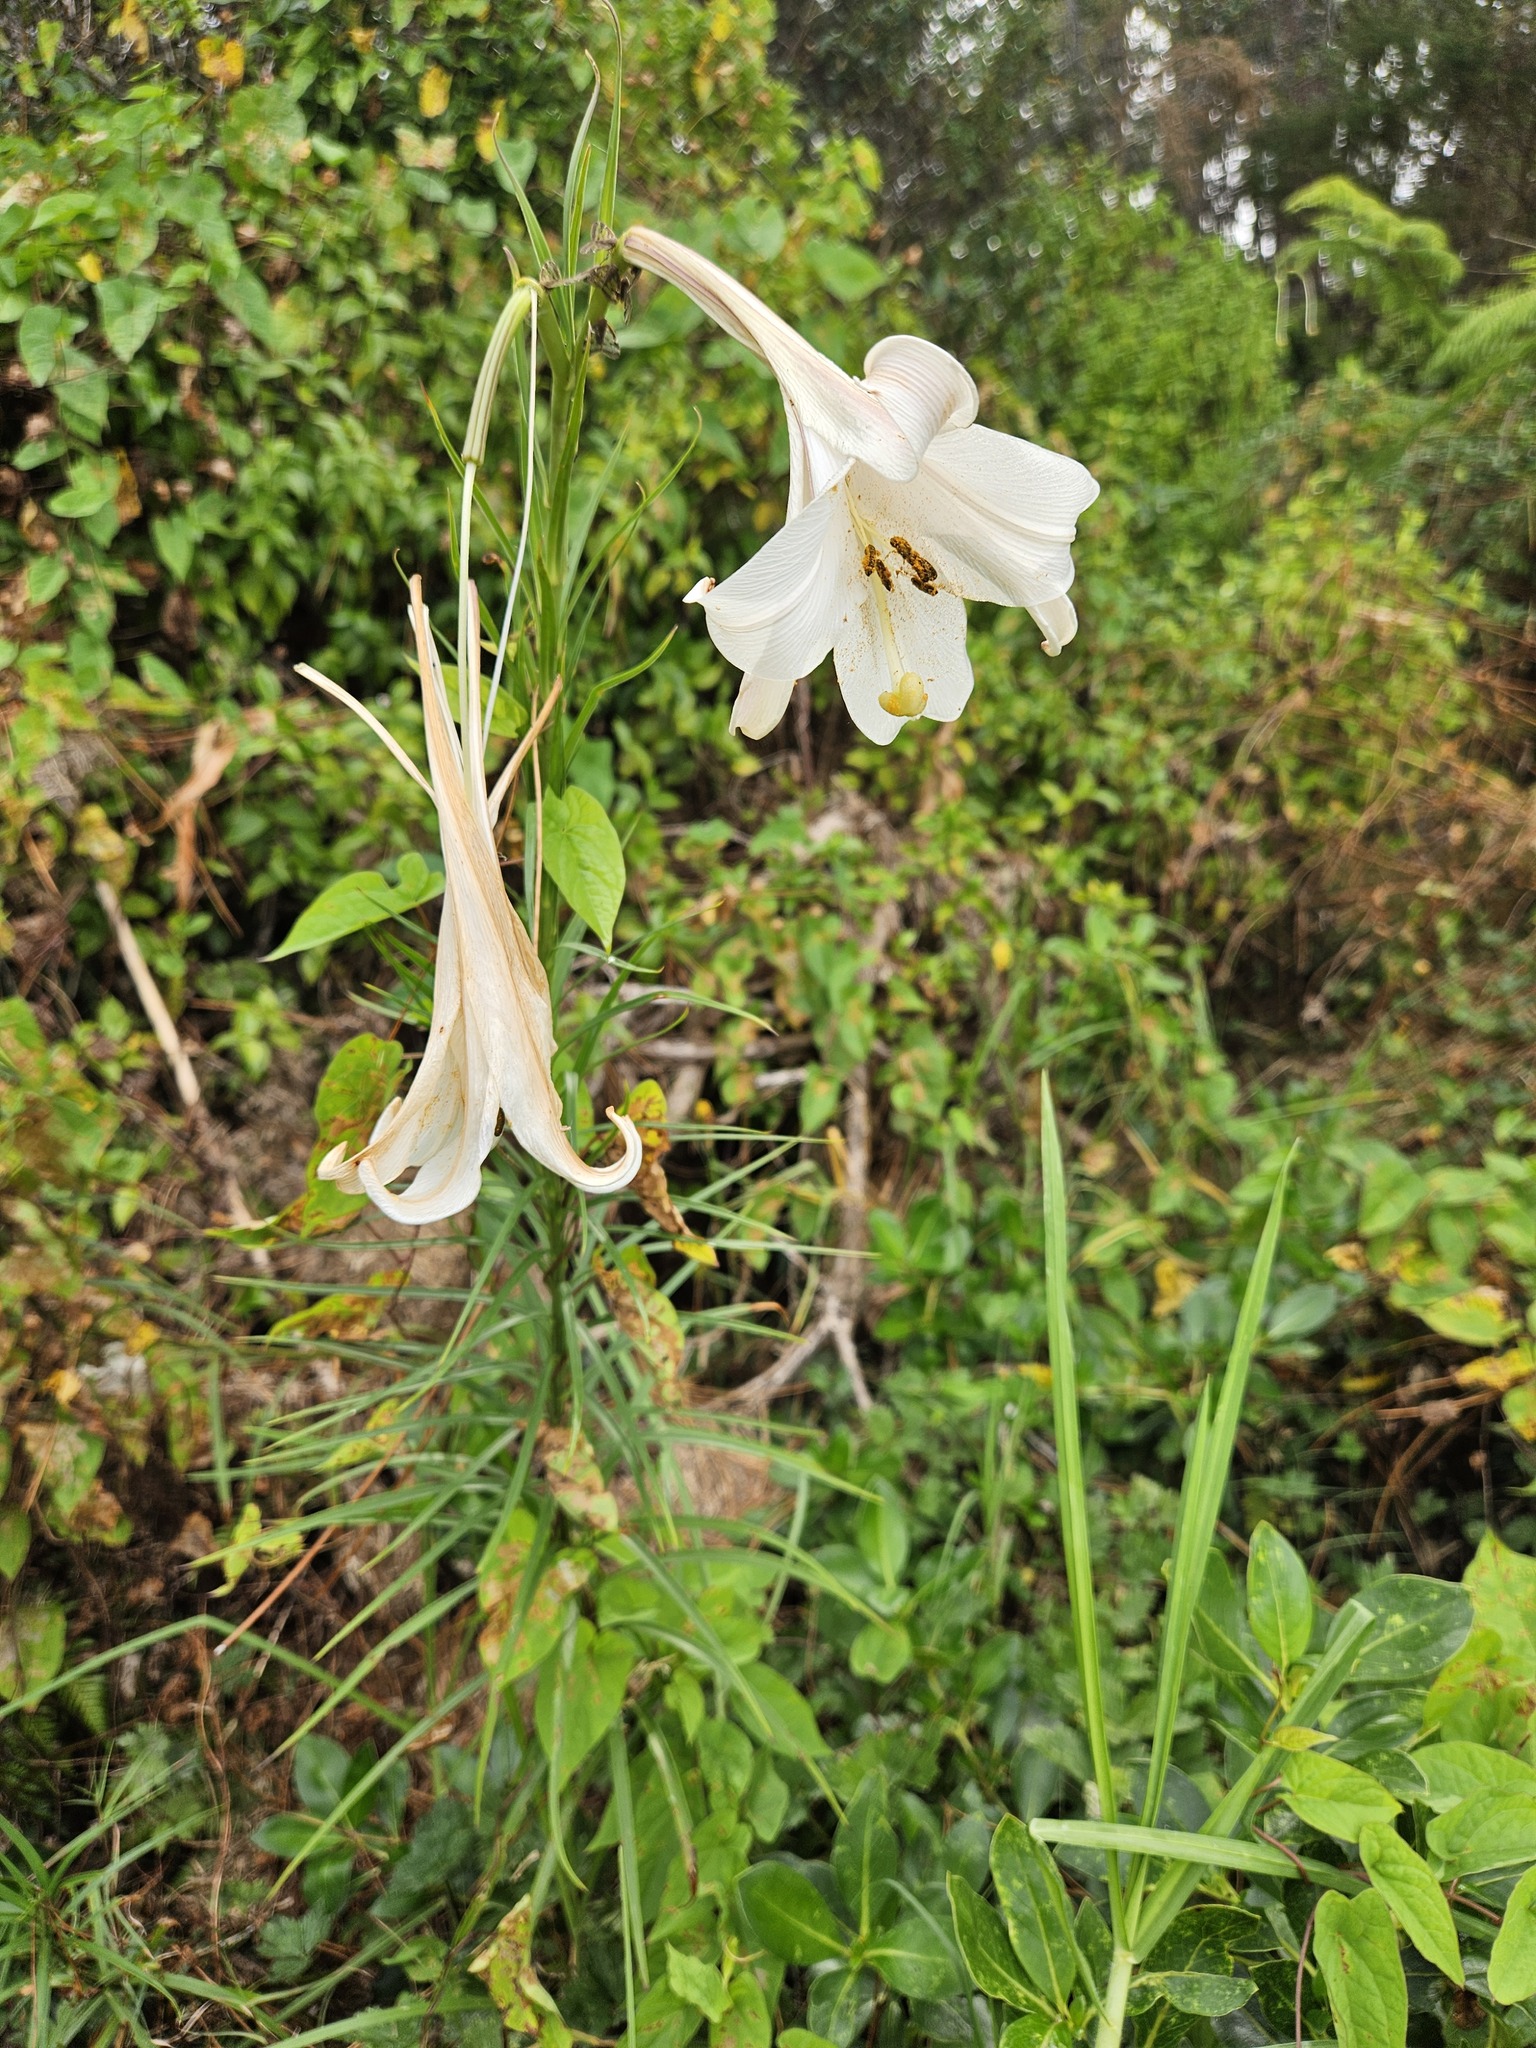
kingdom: Plantae
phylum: Tracheophyta
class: Liliopsida
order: Liliales
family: Liliaceae
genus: Lilium
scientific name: Lilium formosanum
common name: Formosa lily
